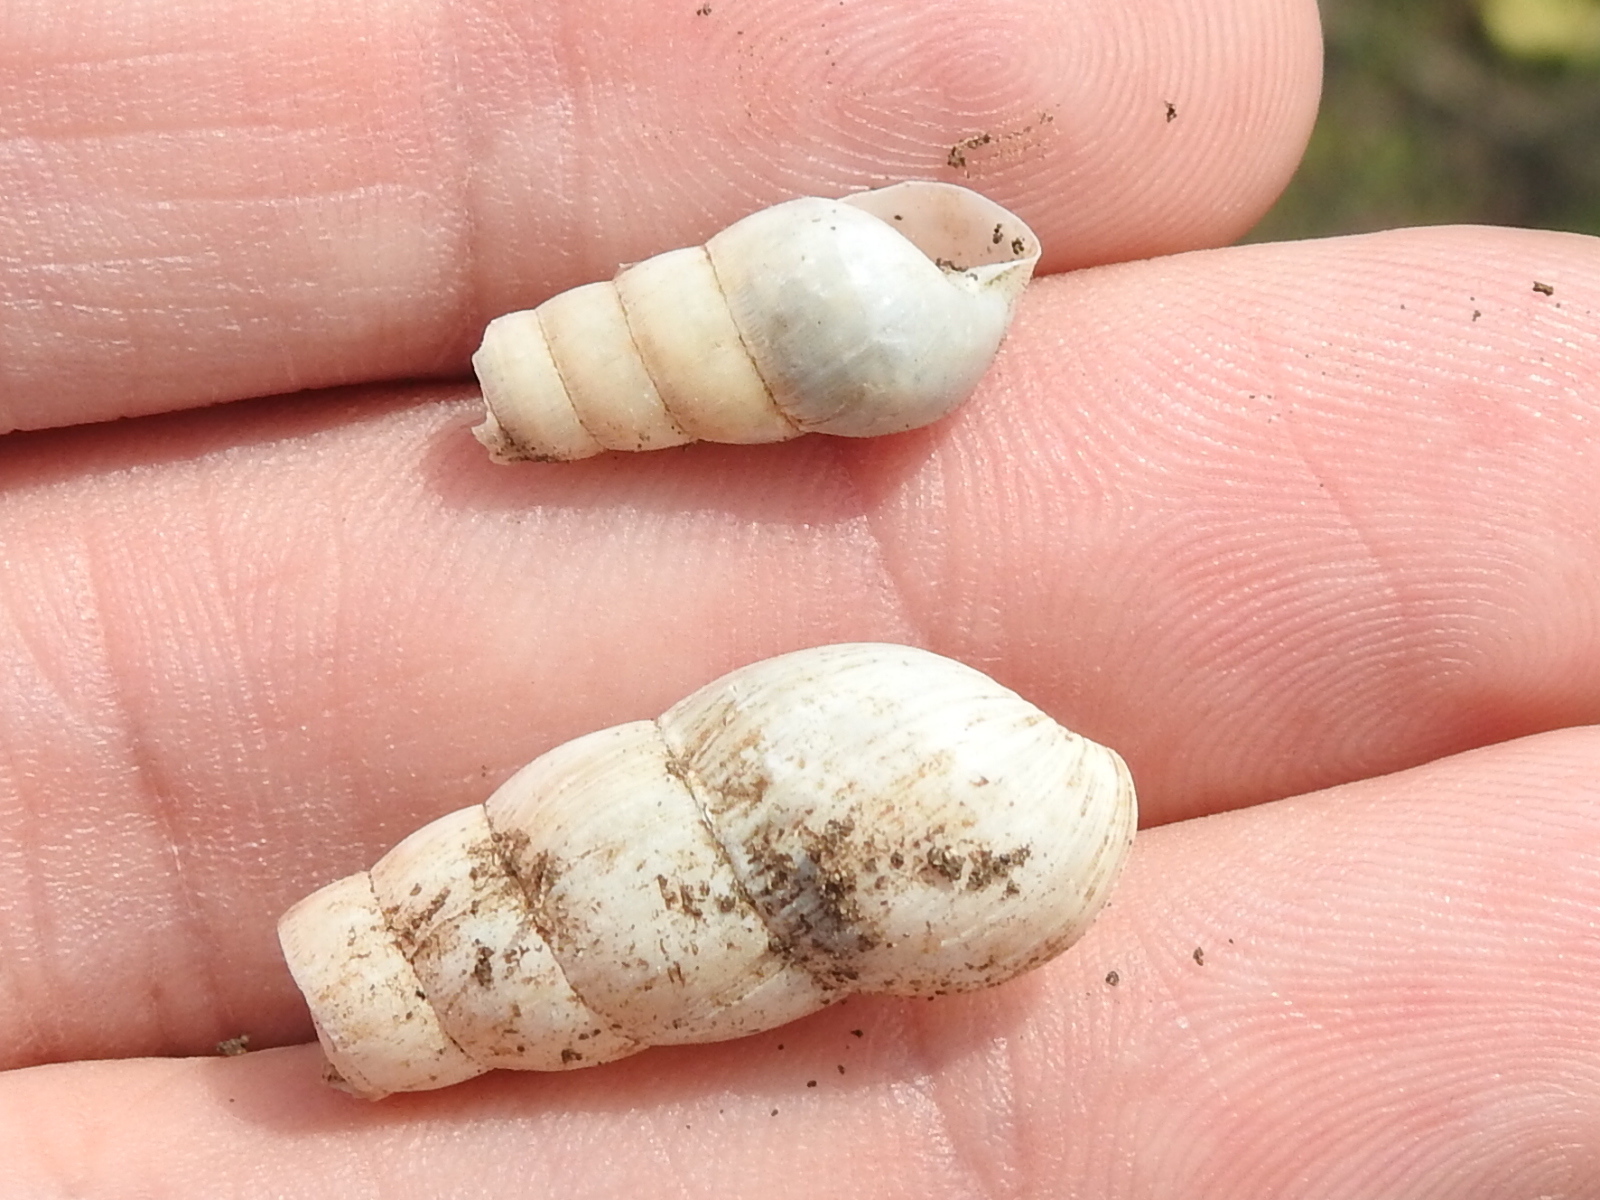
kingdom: Animalia
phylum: Mollusca
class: Gastropoda
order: Stylommatophora
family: Achatinidae
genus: Rumina
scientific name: Rumina decollata
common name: Decollate snail
